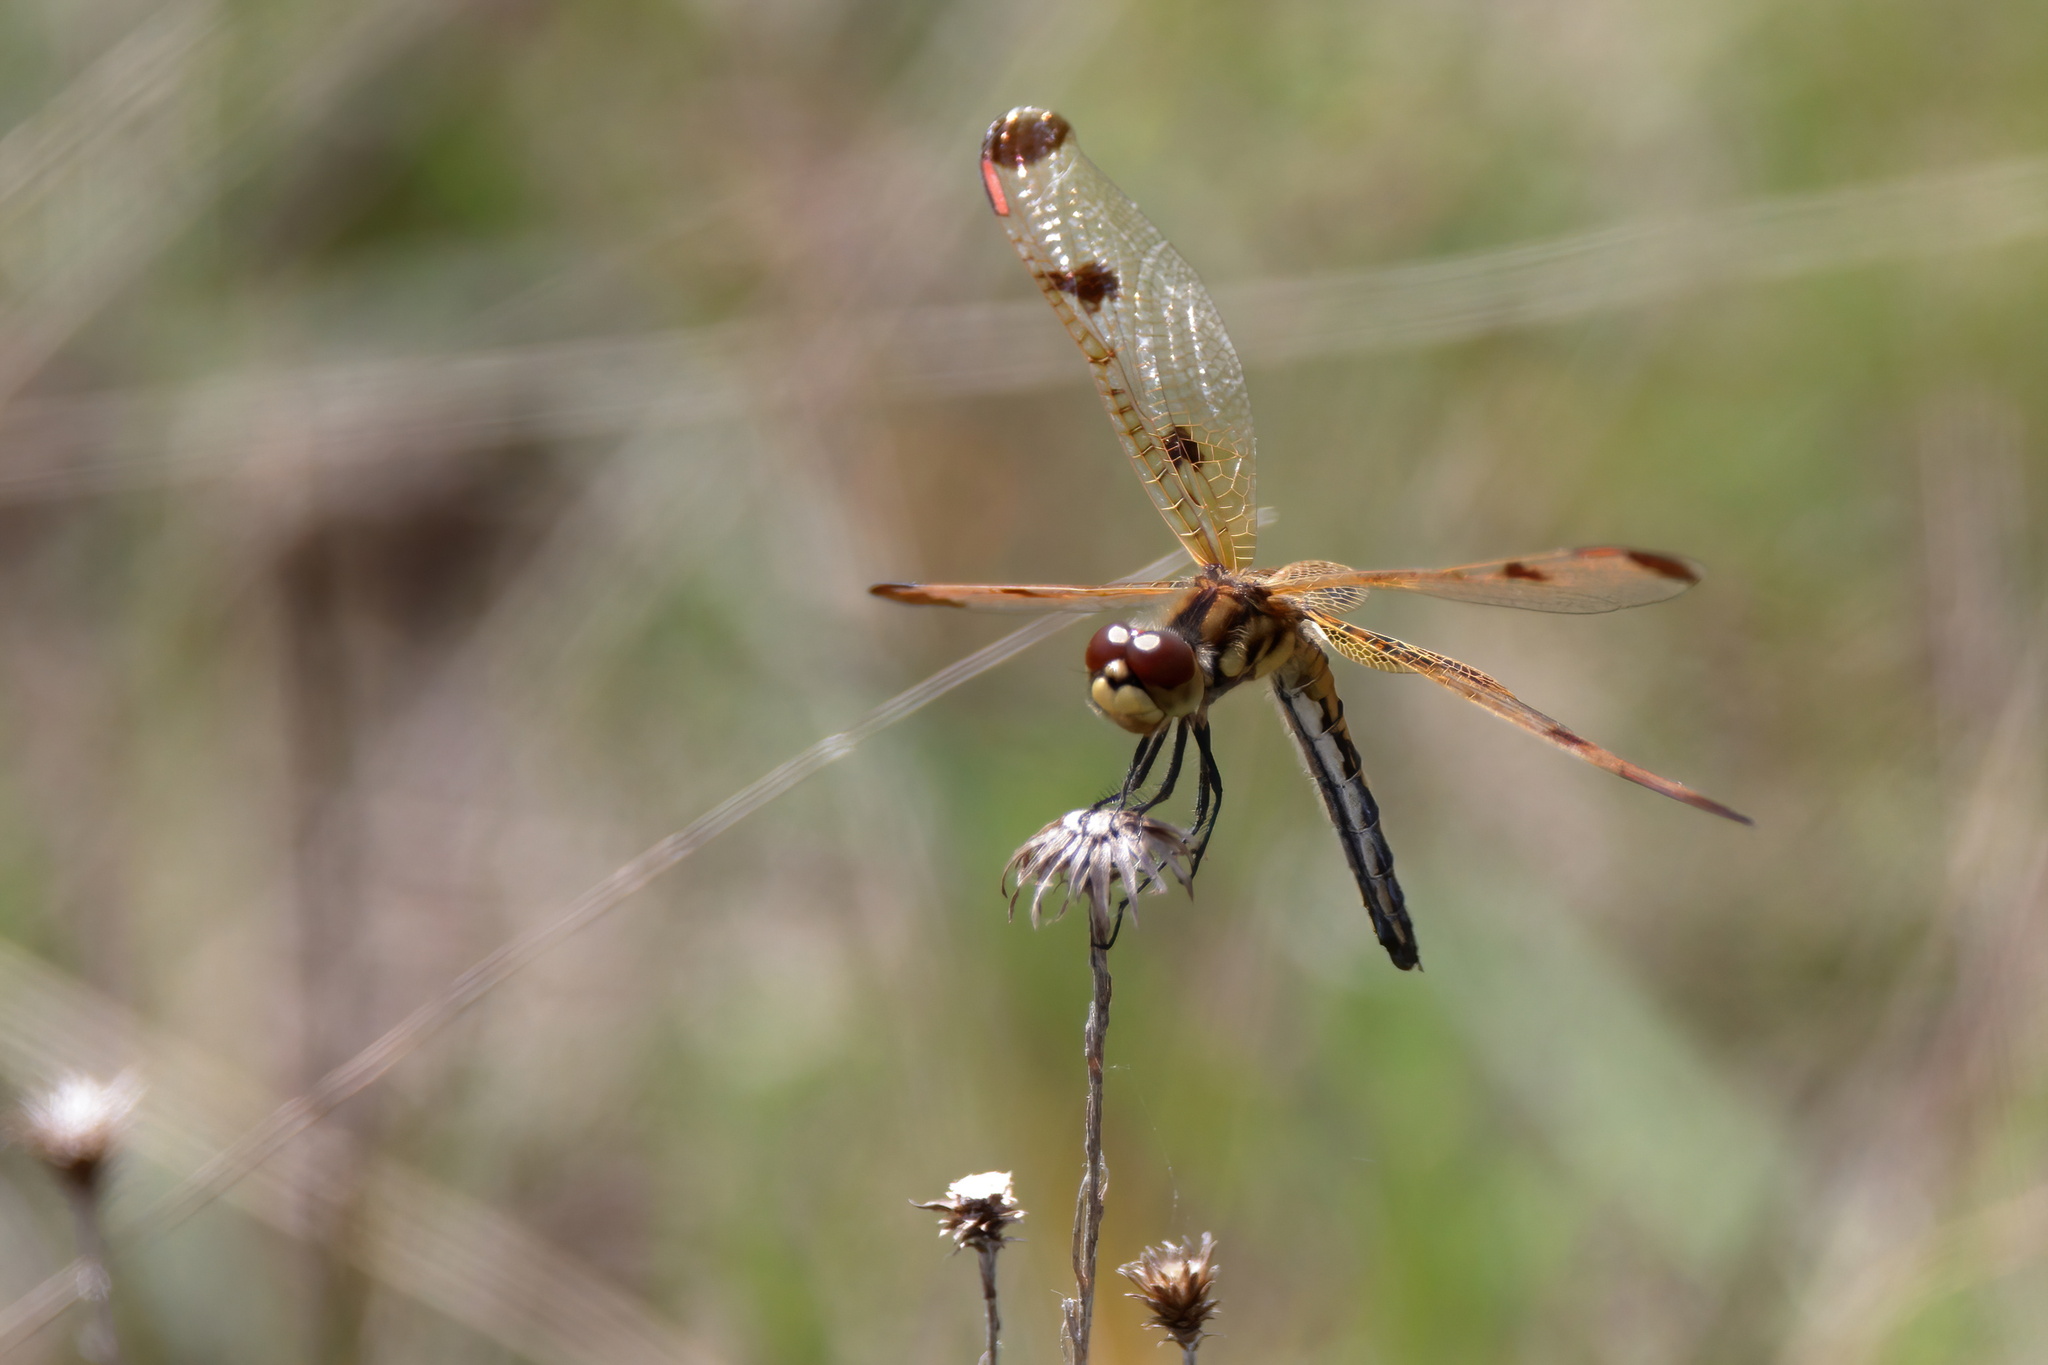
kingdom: Animalia
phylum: Arthropoda
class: Insecta
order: Odonata
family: Libellulidae
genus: Celithemis
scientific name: Celithemis elisa
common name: Calico pennant
